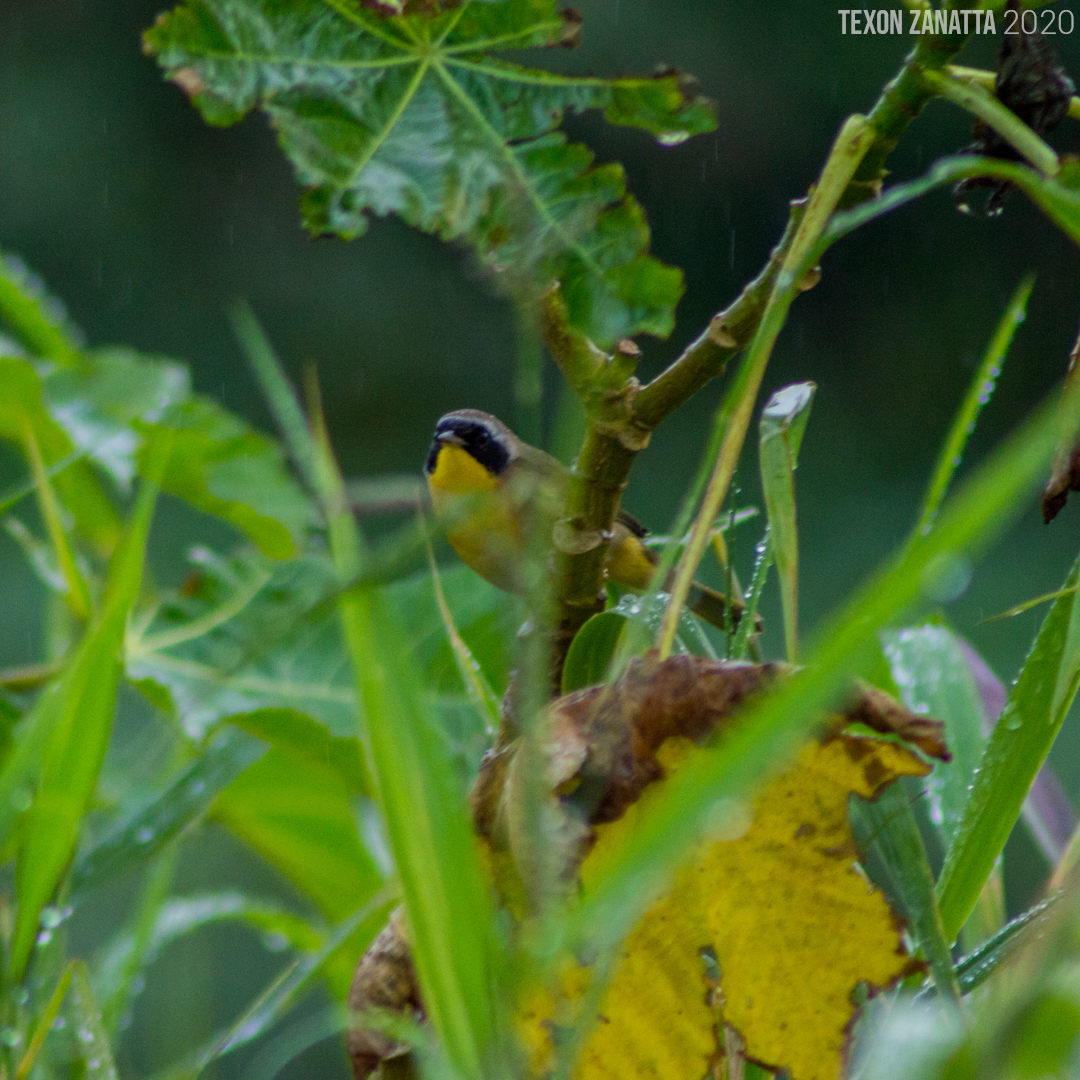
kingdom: Animalia
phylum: Chordata
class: Aves
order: Passeriformes
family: Parulidae
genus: Geothlypis
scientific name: Geothlypis trichas
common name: Common yellowthroat
